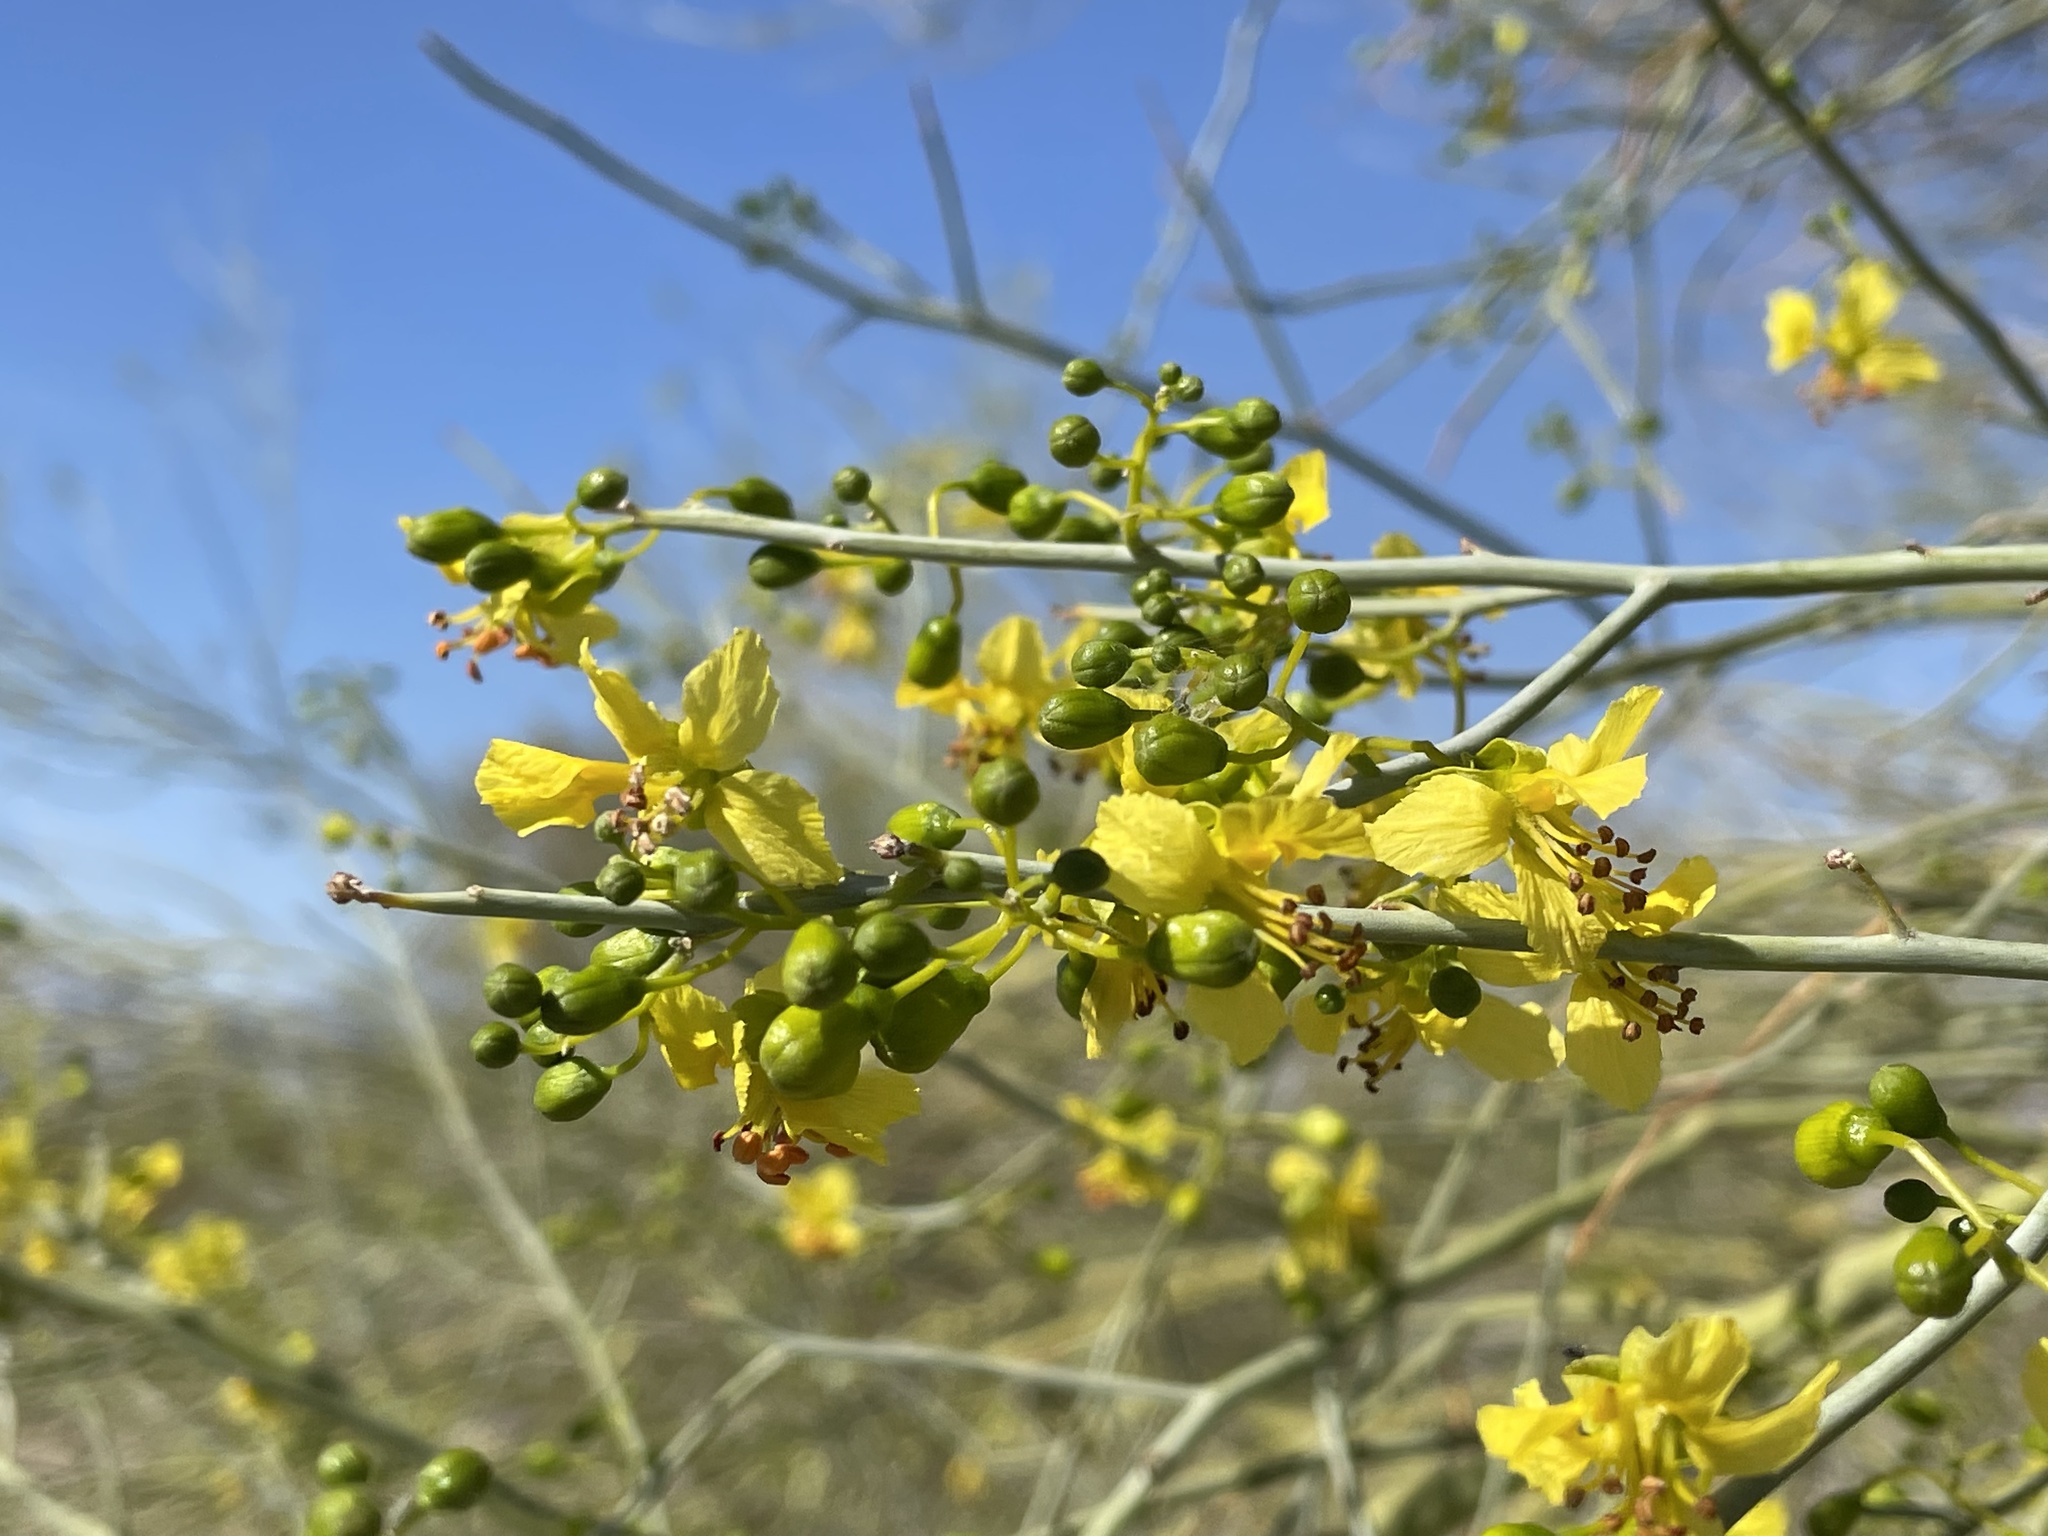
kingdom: Plantae
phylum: Tracheophyta
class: Magnoliopsida
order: Fabales
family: Fabaceae
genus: Parkinsonia
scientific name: Parkinsonia florida
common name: Blue paloverde
